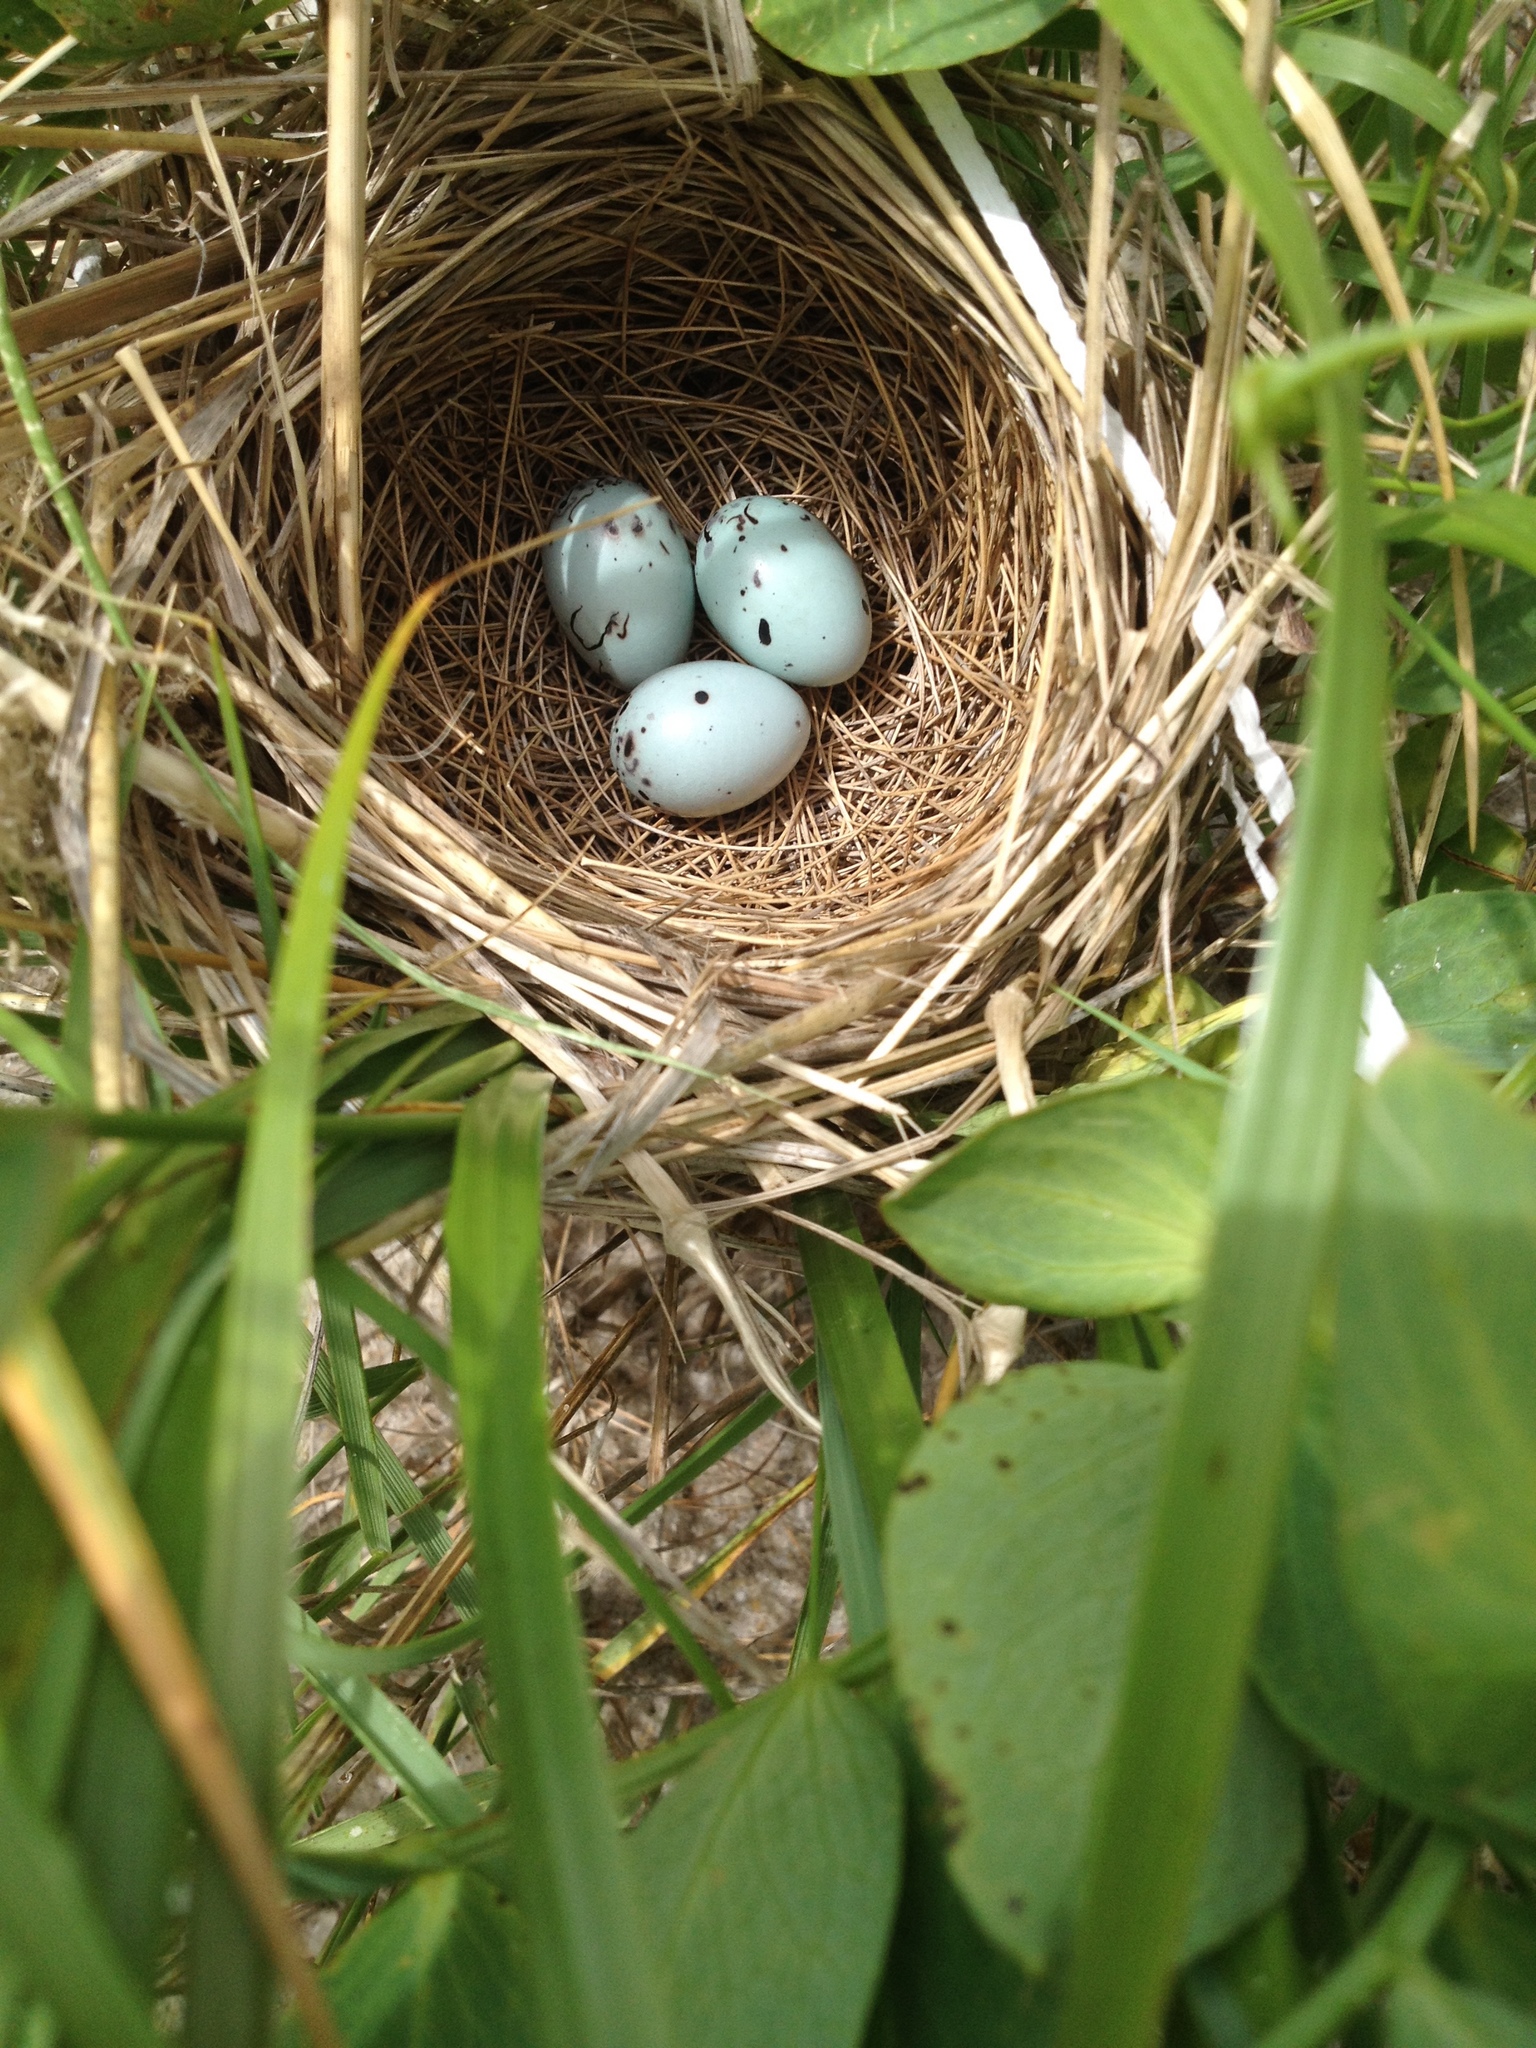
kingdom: Animalia
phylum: Chordata
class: Aves
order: Passeriformes
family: Icteridae
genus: Agelaius
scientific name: Agelaius phoeniceus
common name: Red-winged blackbird
